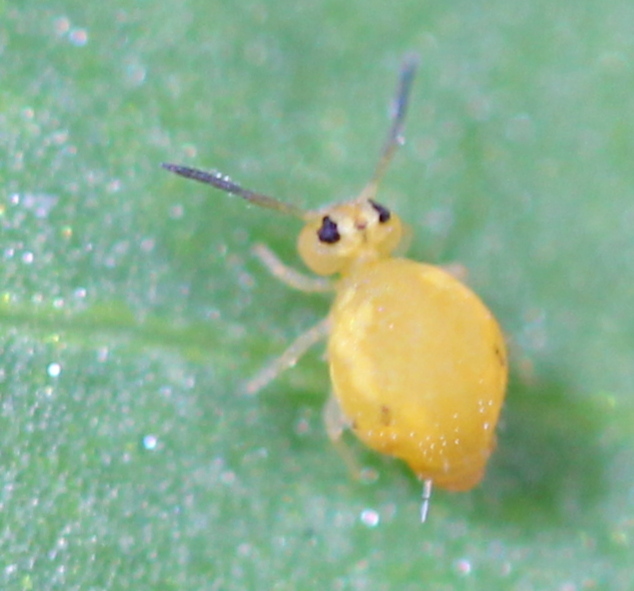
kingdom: Animalia
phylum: Arthropoda
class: Collembola
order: Symphypleona
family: Katiannidae
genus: Sminthurinus
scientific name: Sminthurinus henshawi
